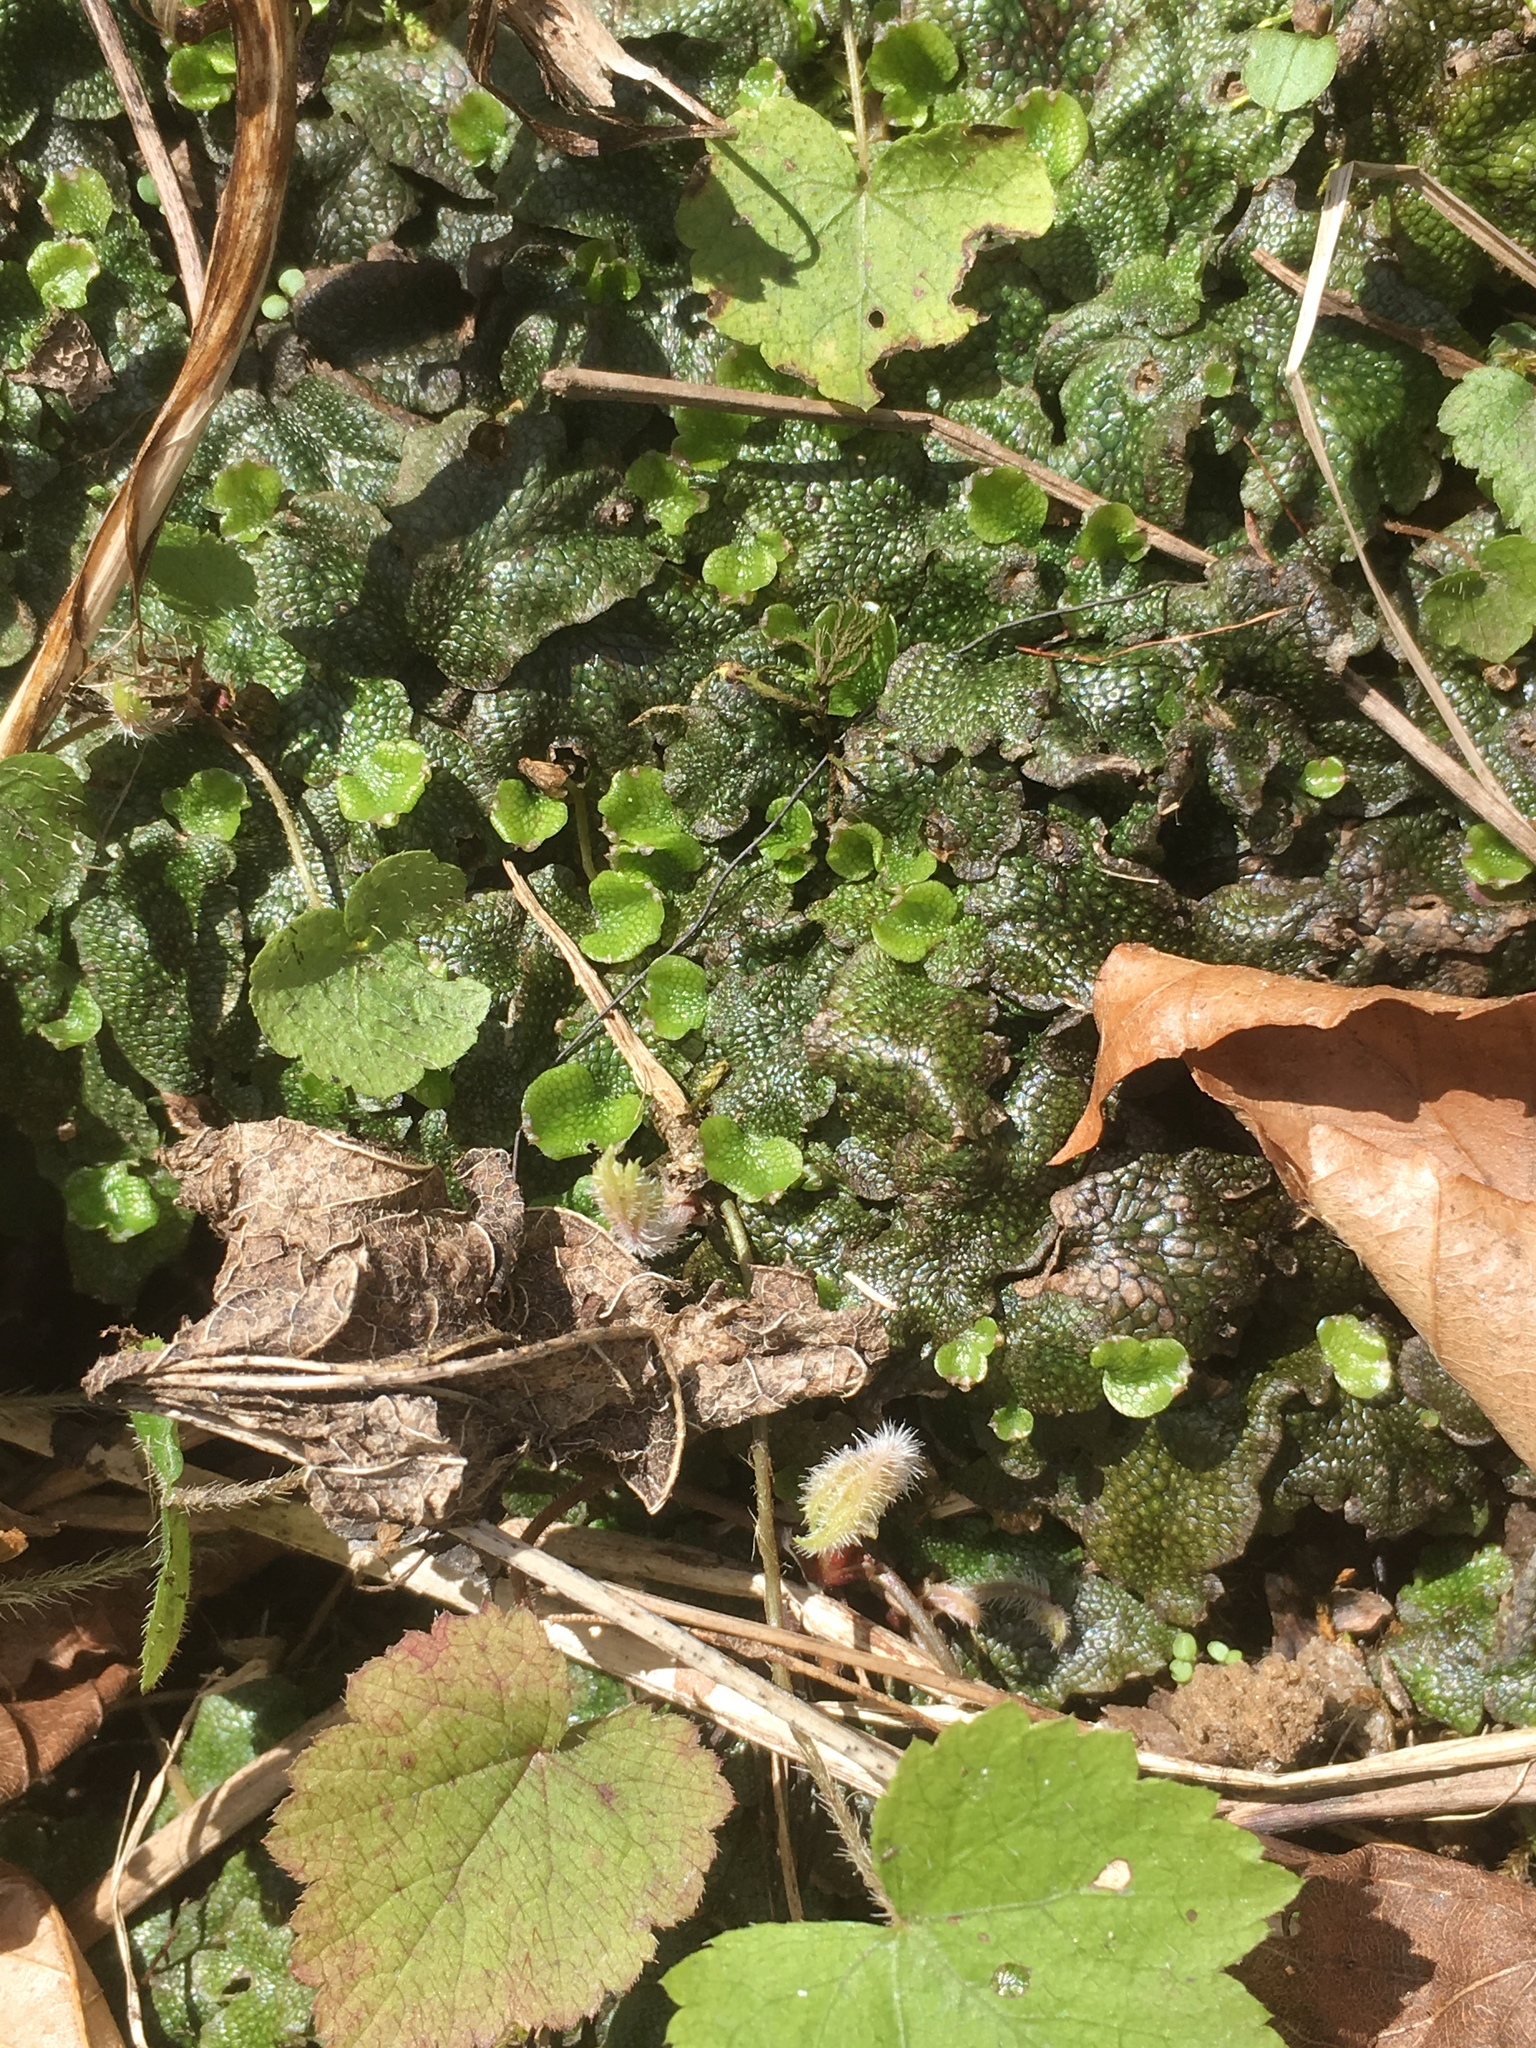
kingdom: Plantae
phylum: Marchantiophyta
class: Marchantiopsida
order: Marchantiales
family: Conocephalaceae
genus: Conocephalum
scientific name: Conocephalum salebrosum
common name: Cat-tongue liverwort
